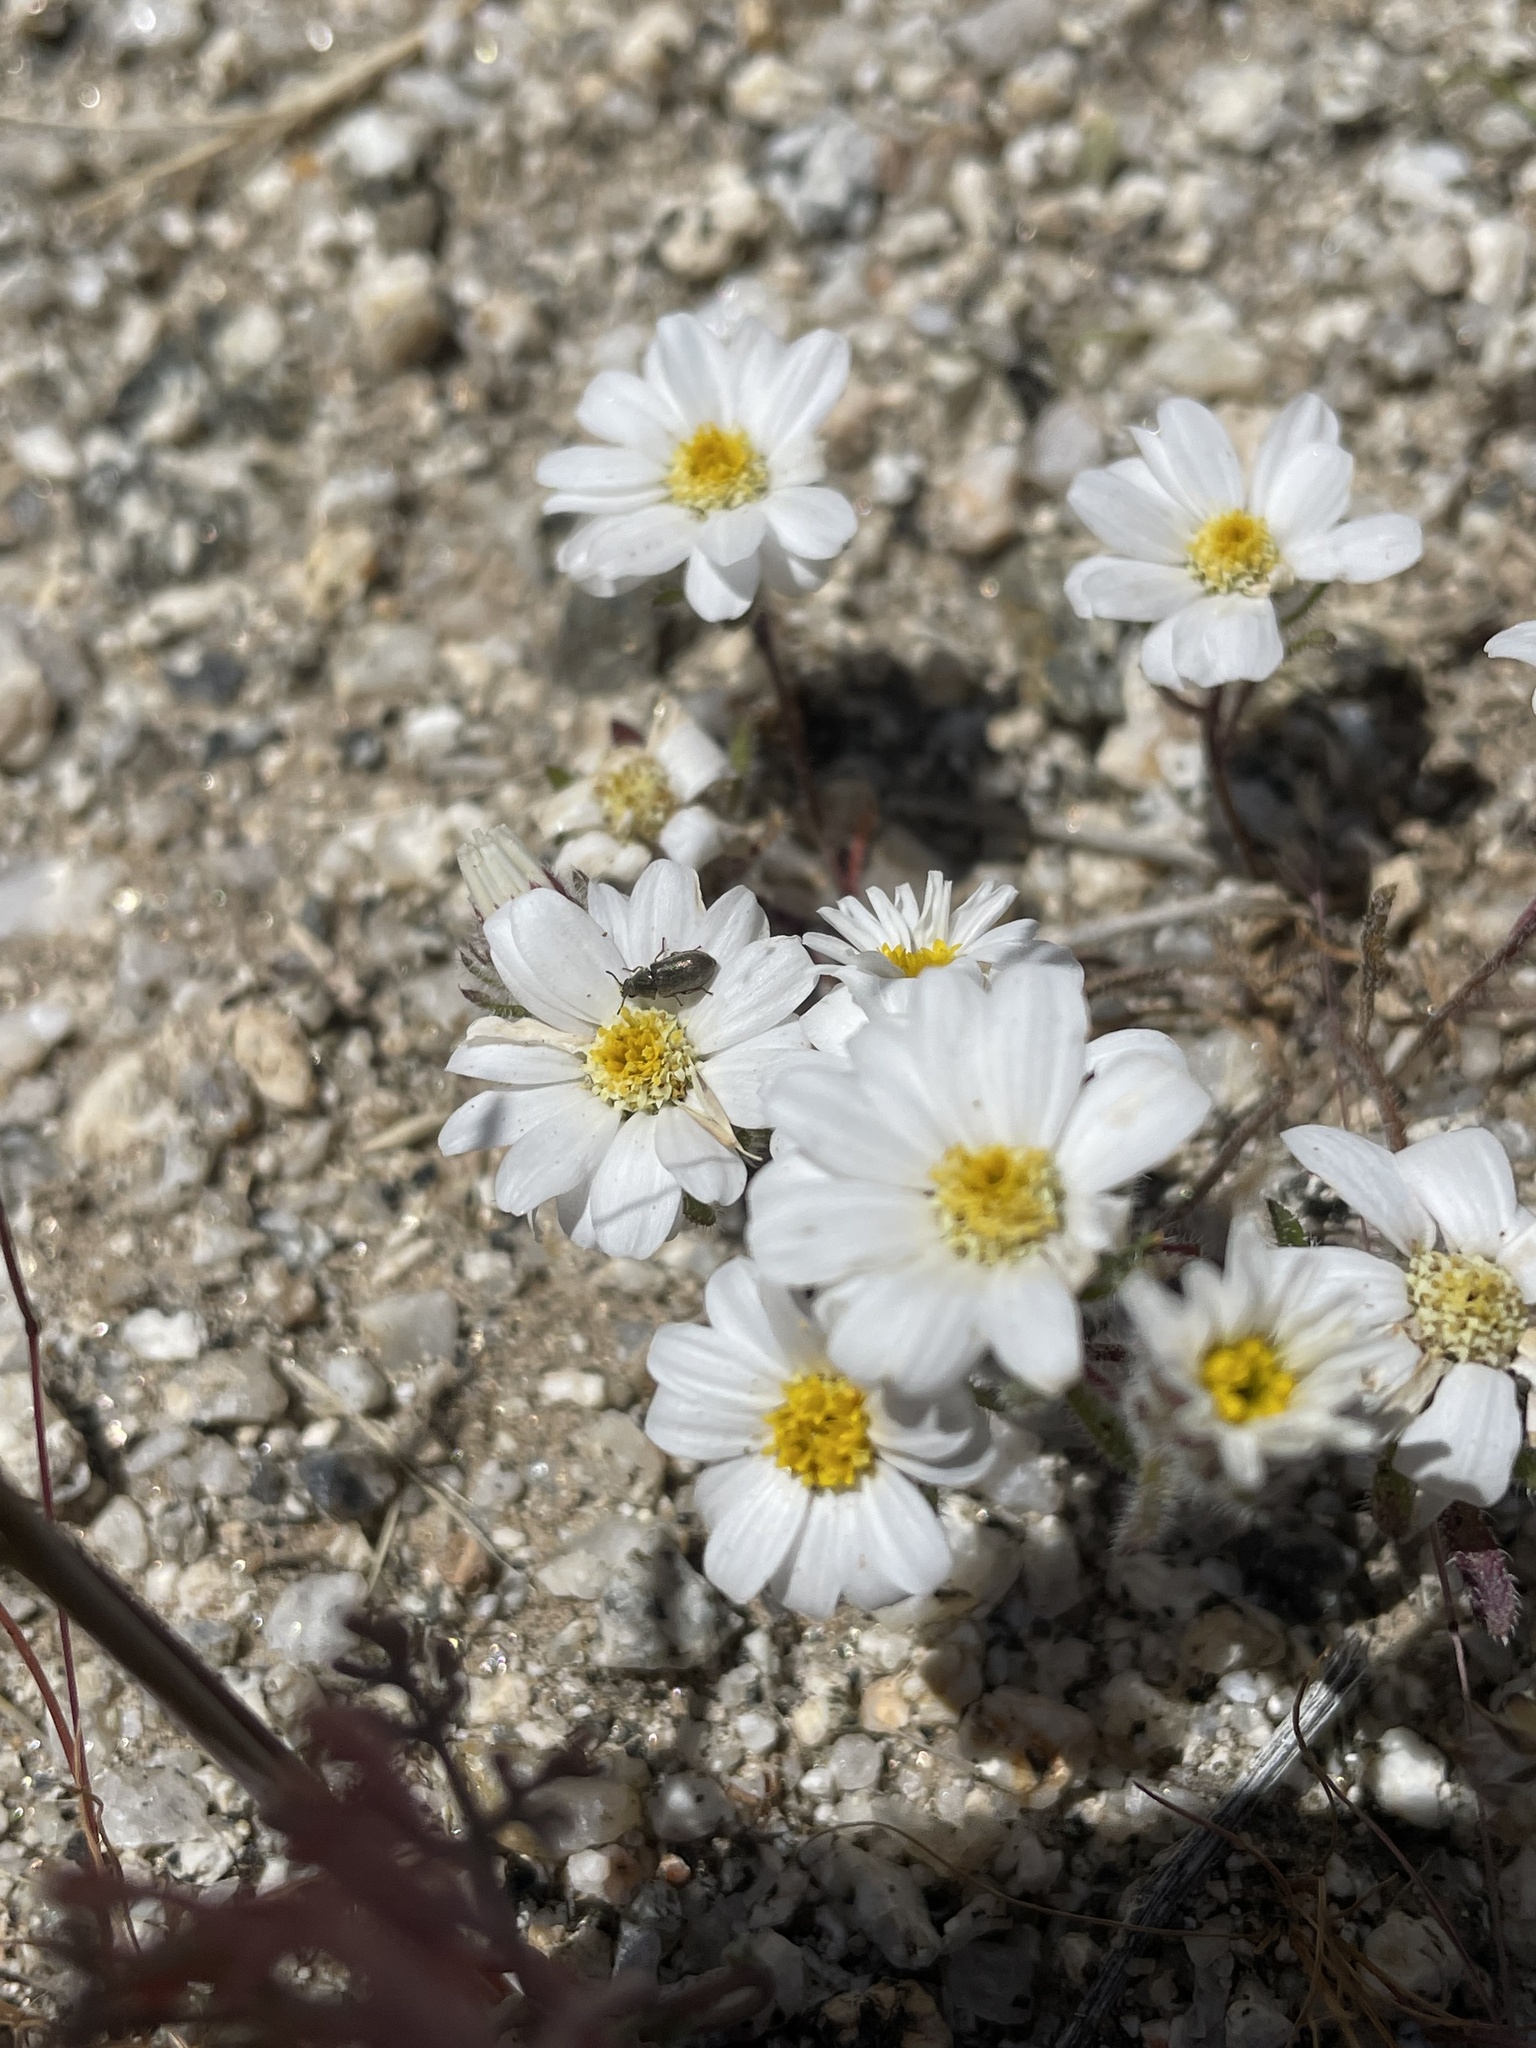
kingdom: Plantae
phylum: Tracheophyta
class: Magnoliopsida
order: Asterales
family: Asteraceae
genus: Monoptilon
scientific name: Monoptilon bellioides
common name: Bristly desertstar
